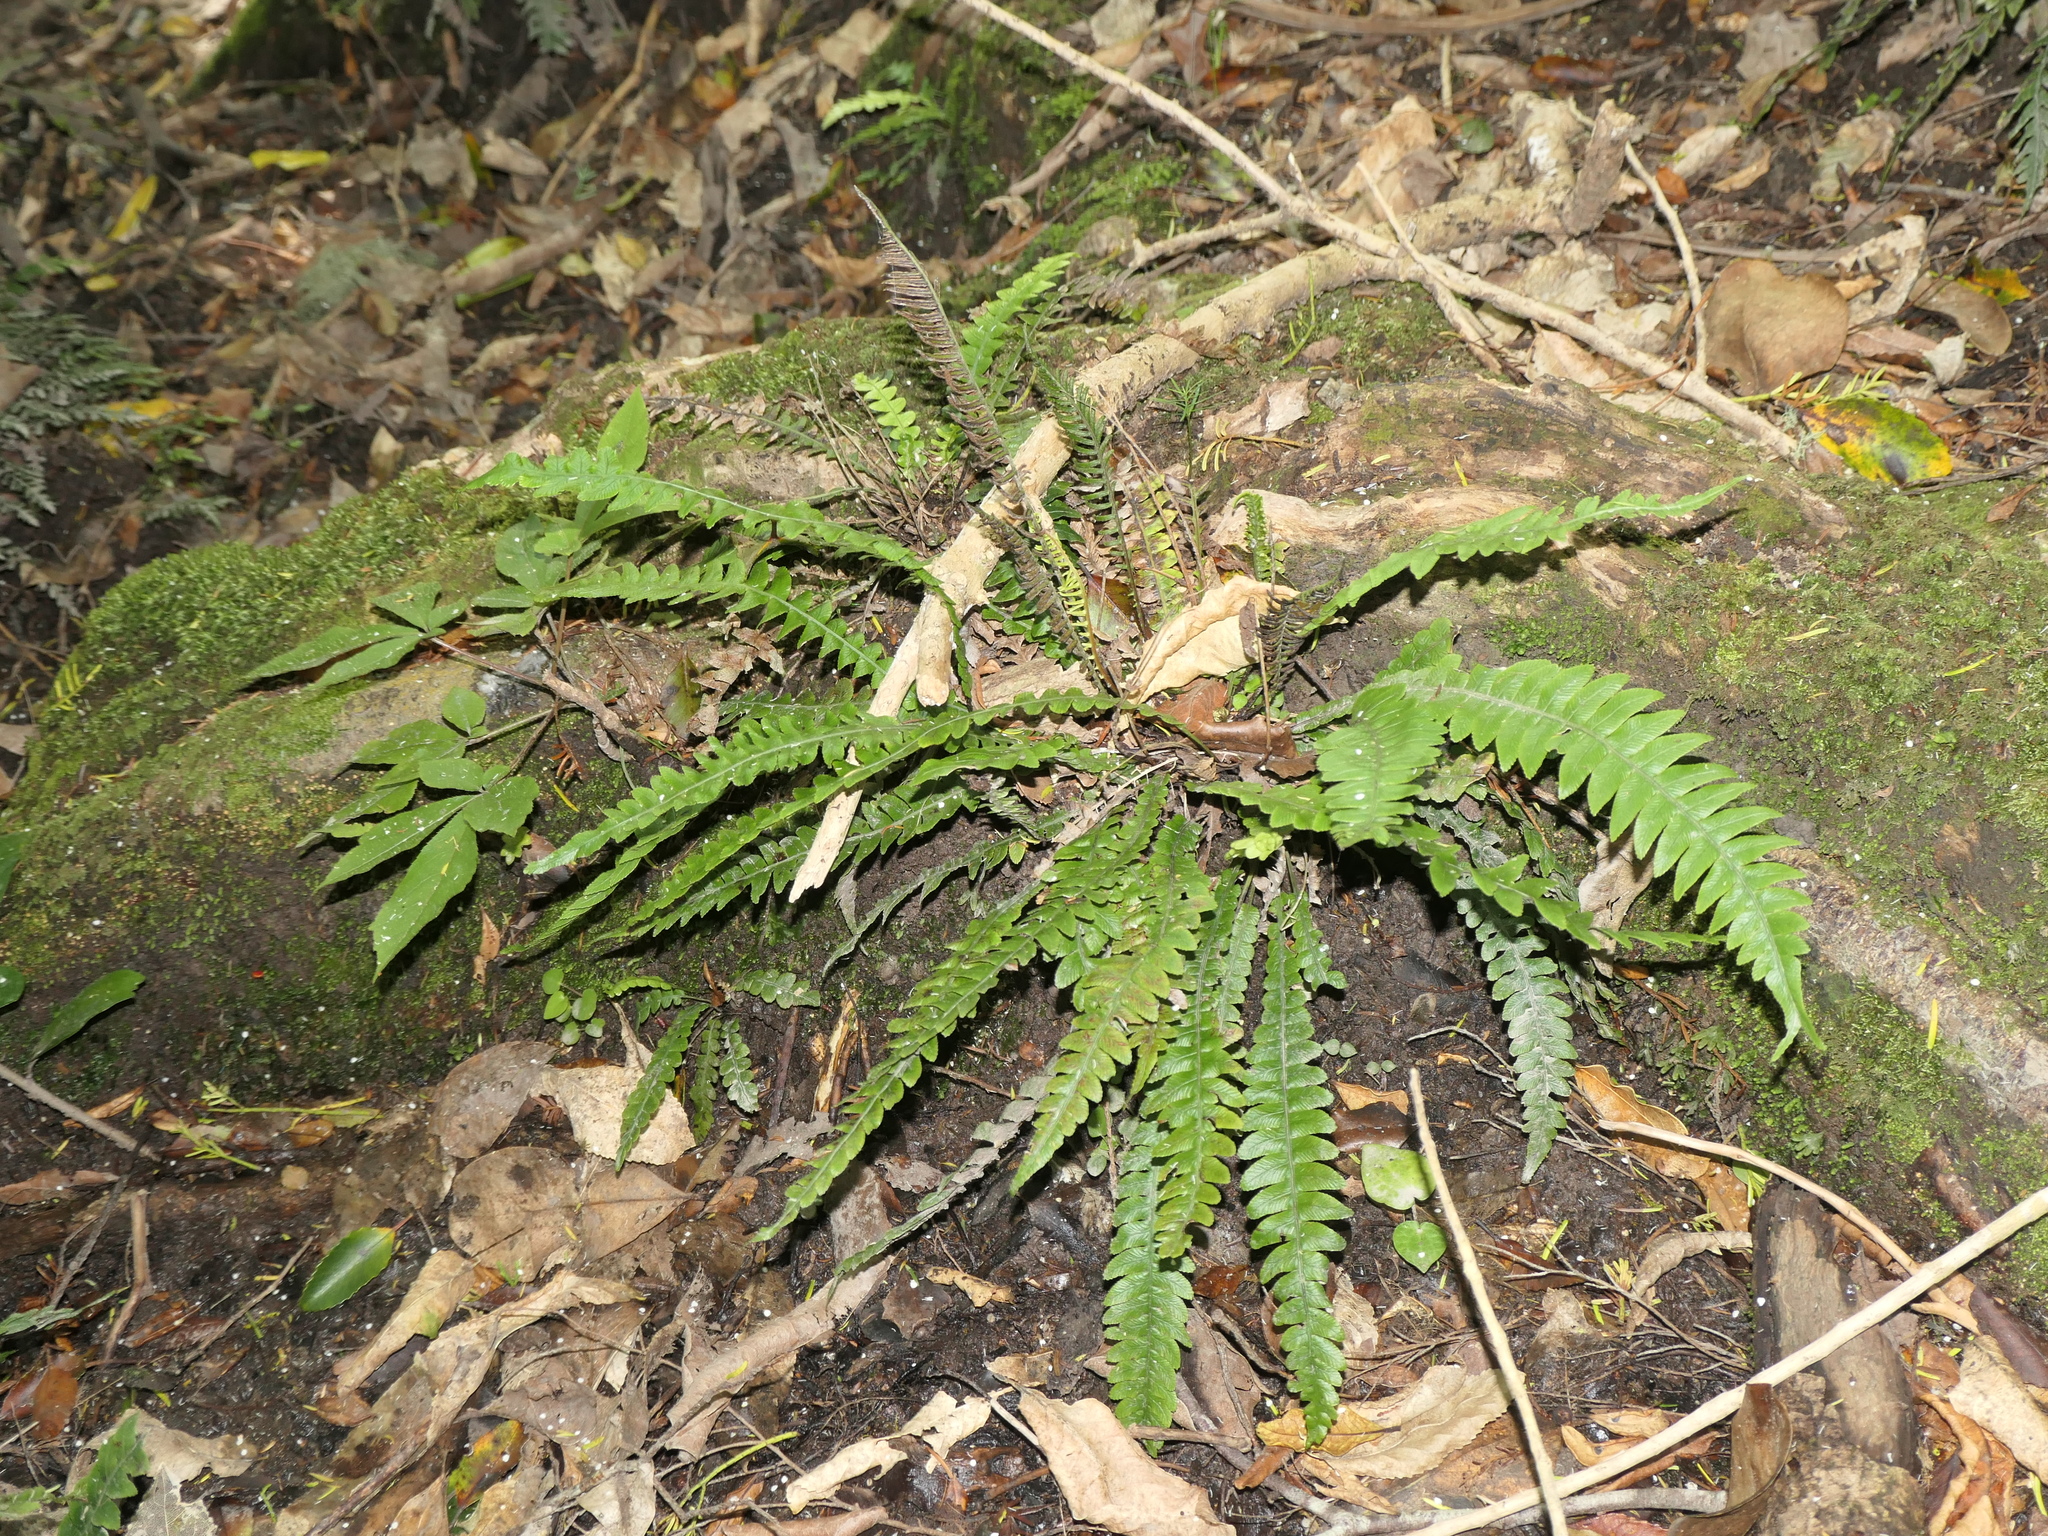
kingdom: Plantae
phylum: Tracheophyta
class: Polypodiopsida
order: Polypodiales
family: Blechnaceae
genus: Austroblechnum
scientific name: Austroblechnum lanceolatum
